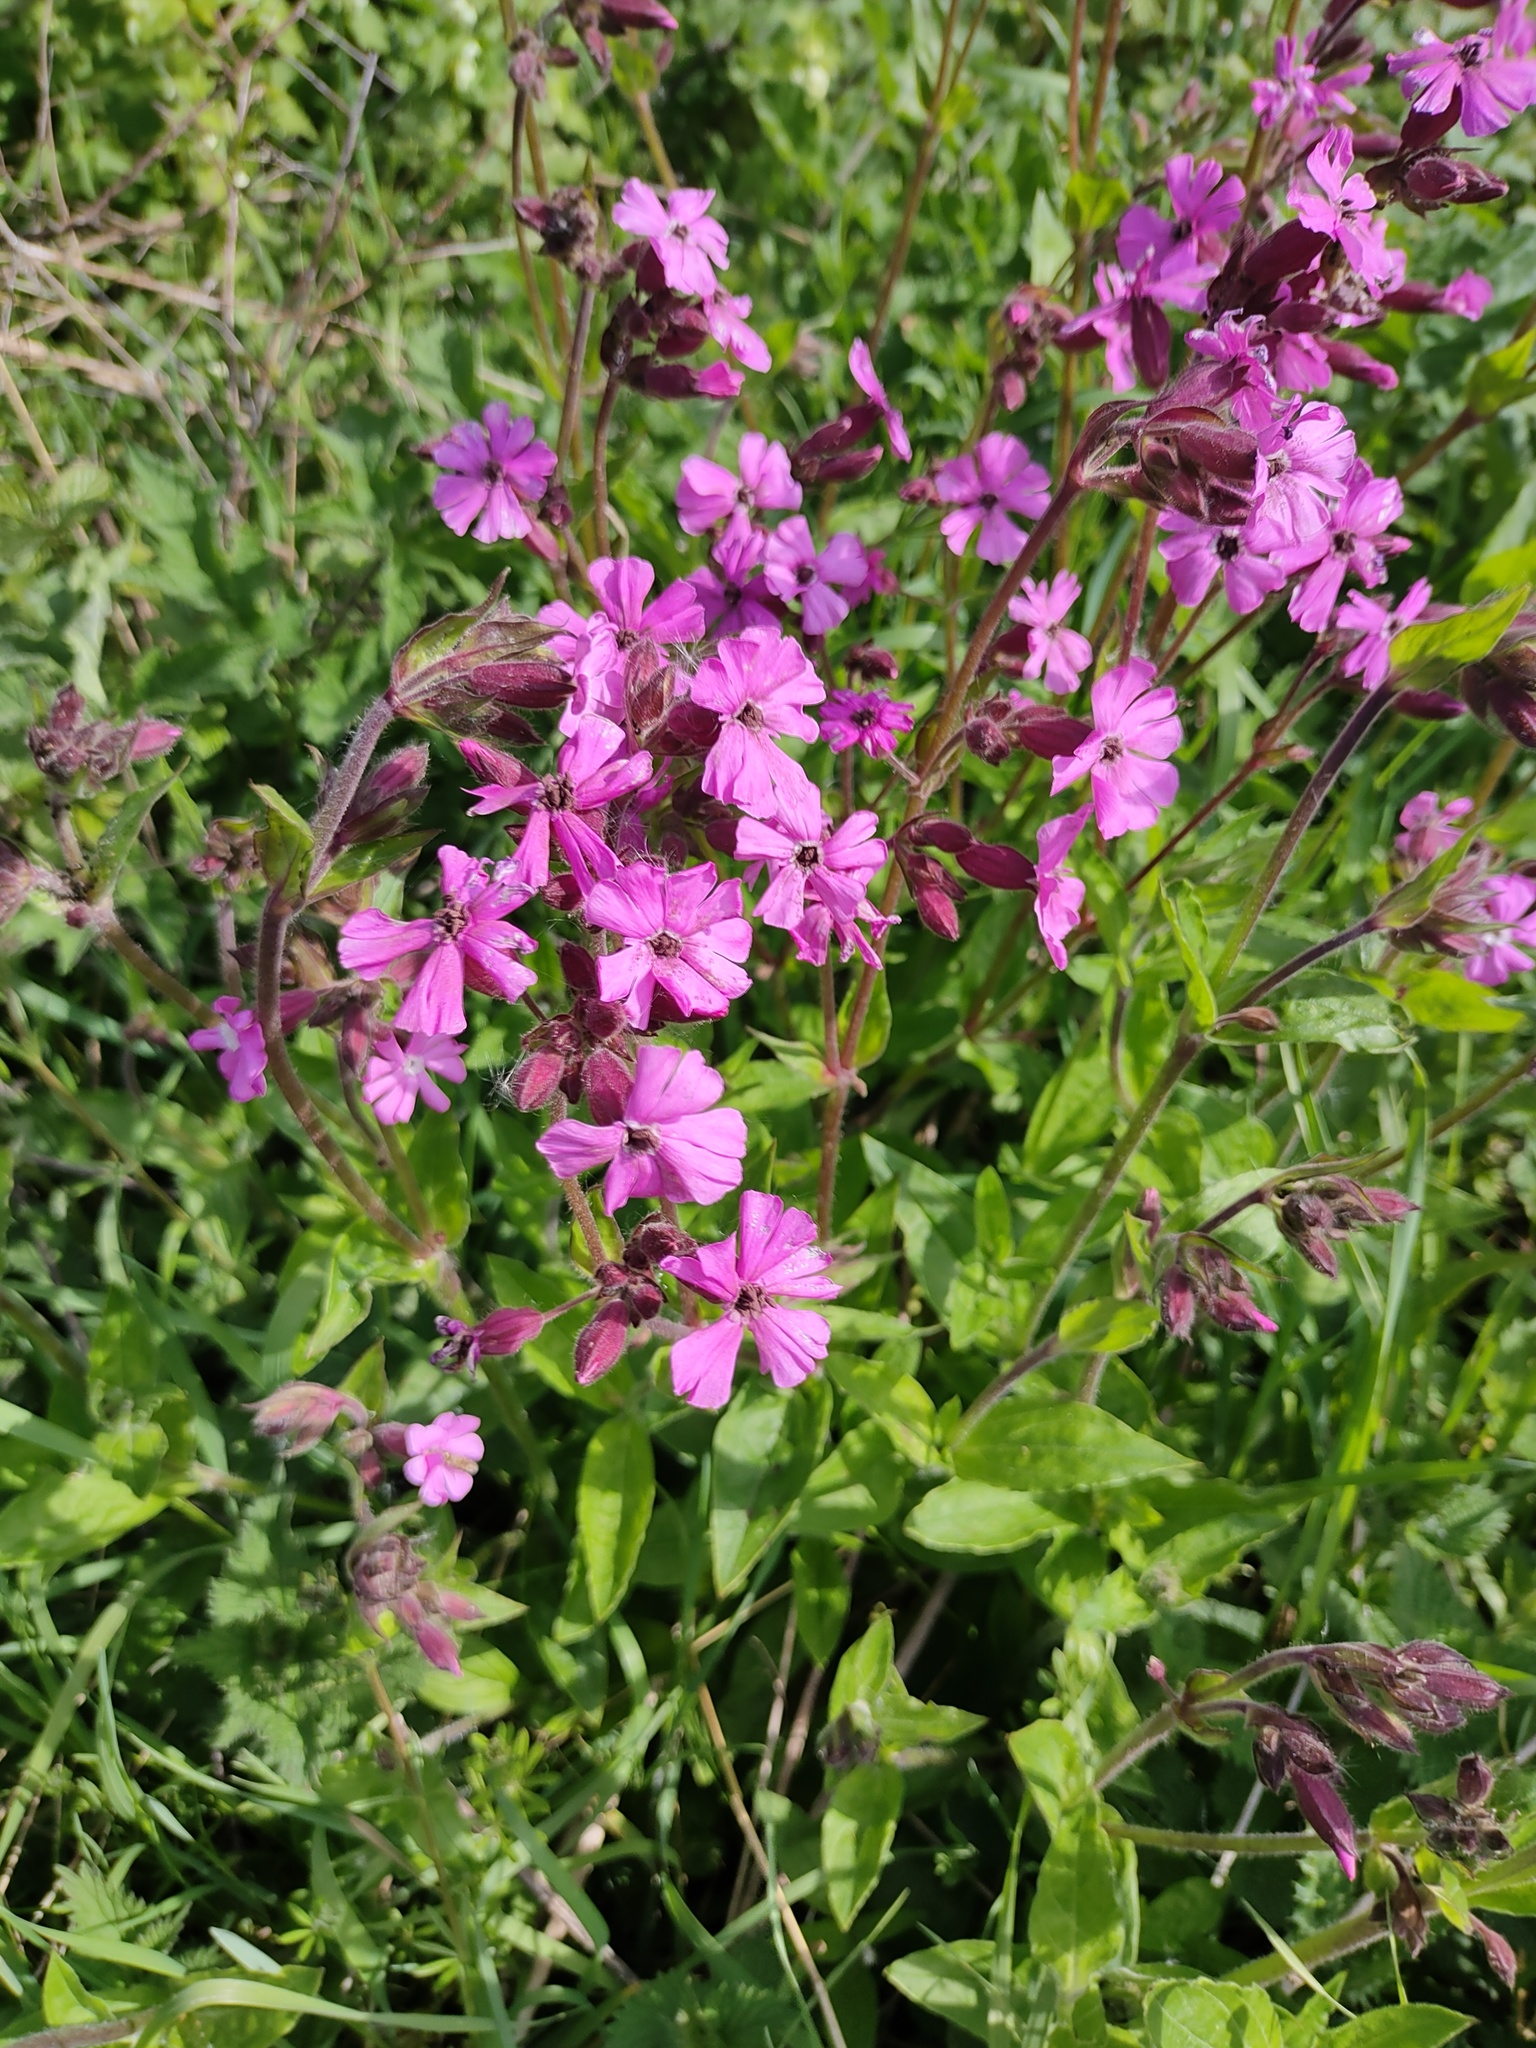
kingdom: Plantae
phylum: Tracheophyta
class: Magnoliopsida
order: Caryophyllales
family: Caryophyllaceae
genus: Silene
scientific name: Silene dioica
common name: Red campion
